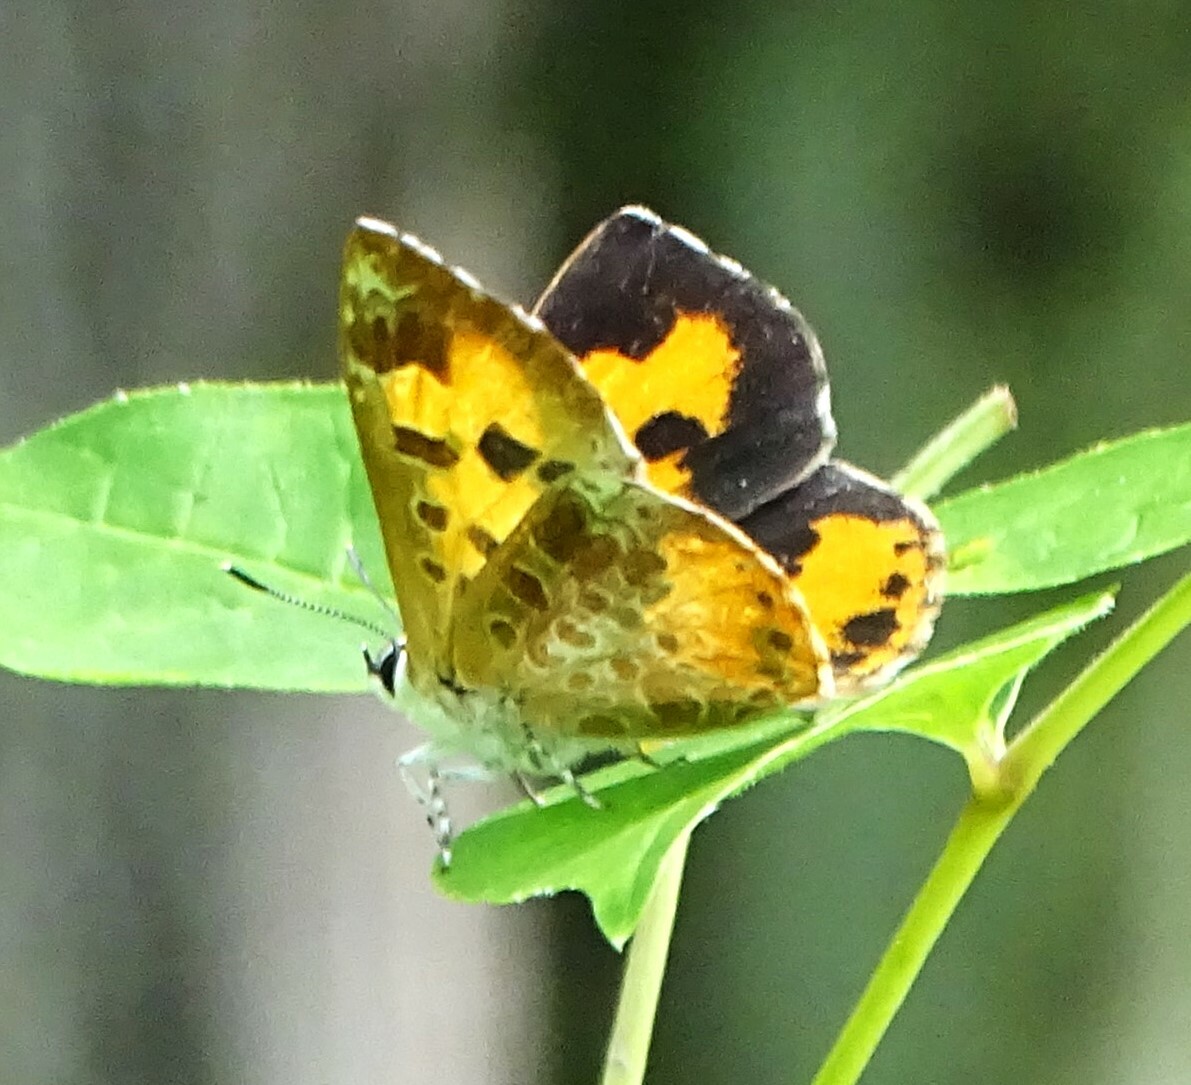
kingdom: Animalia
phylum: Arthropoda
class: Insecta
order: Lepidoptera
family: Lycaenidae
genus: Feniseca
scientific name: Feniseca tarquinius
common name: Harvester
